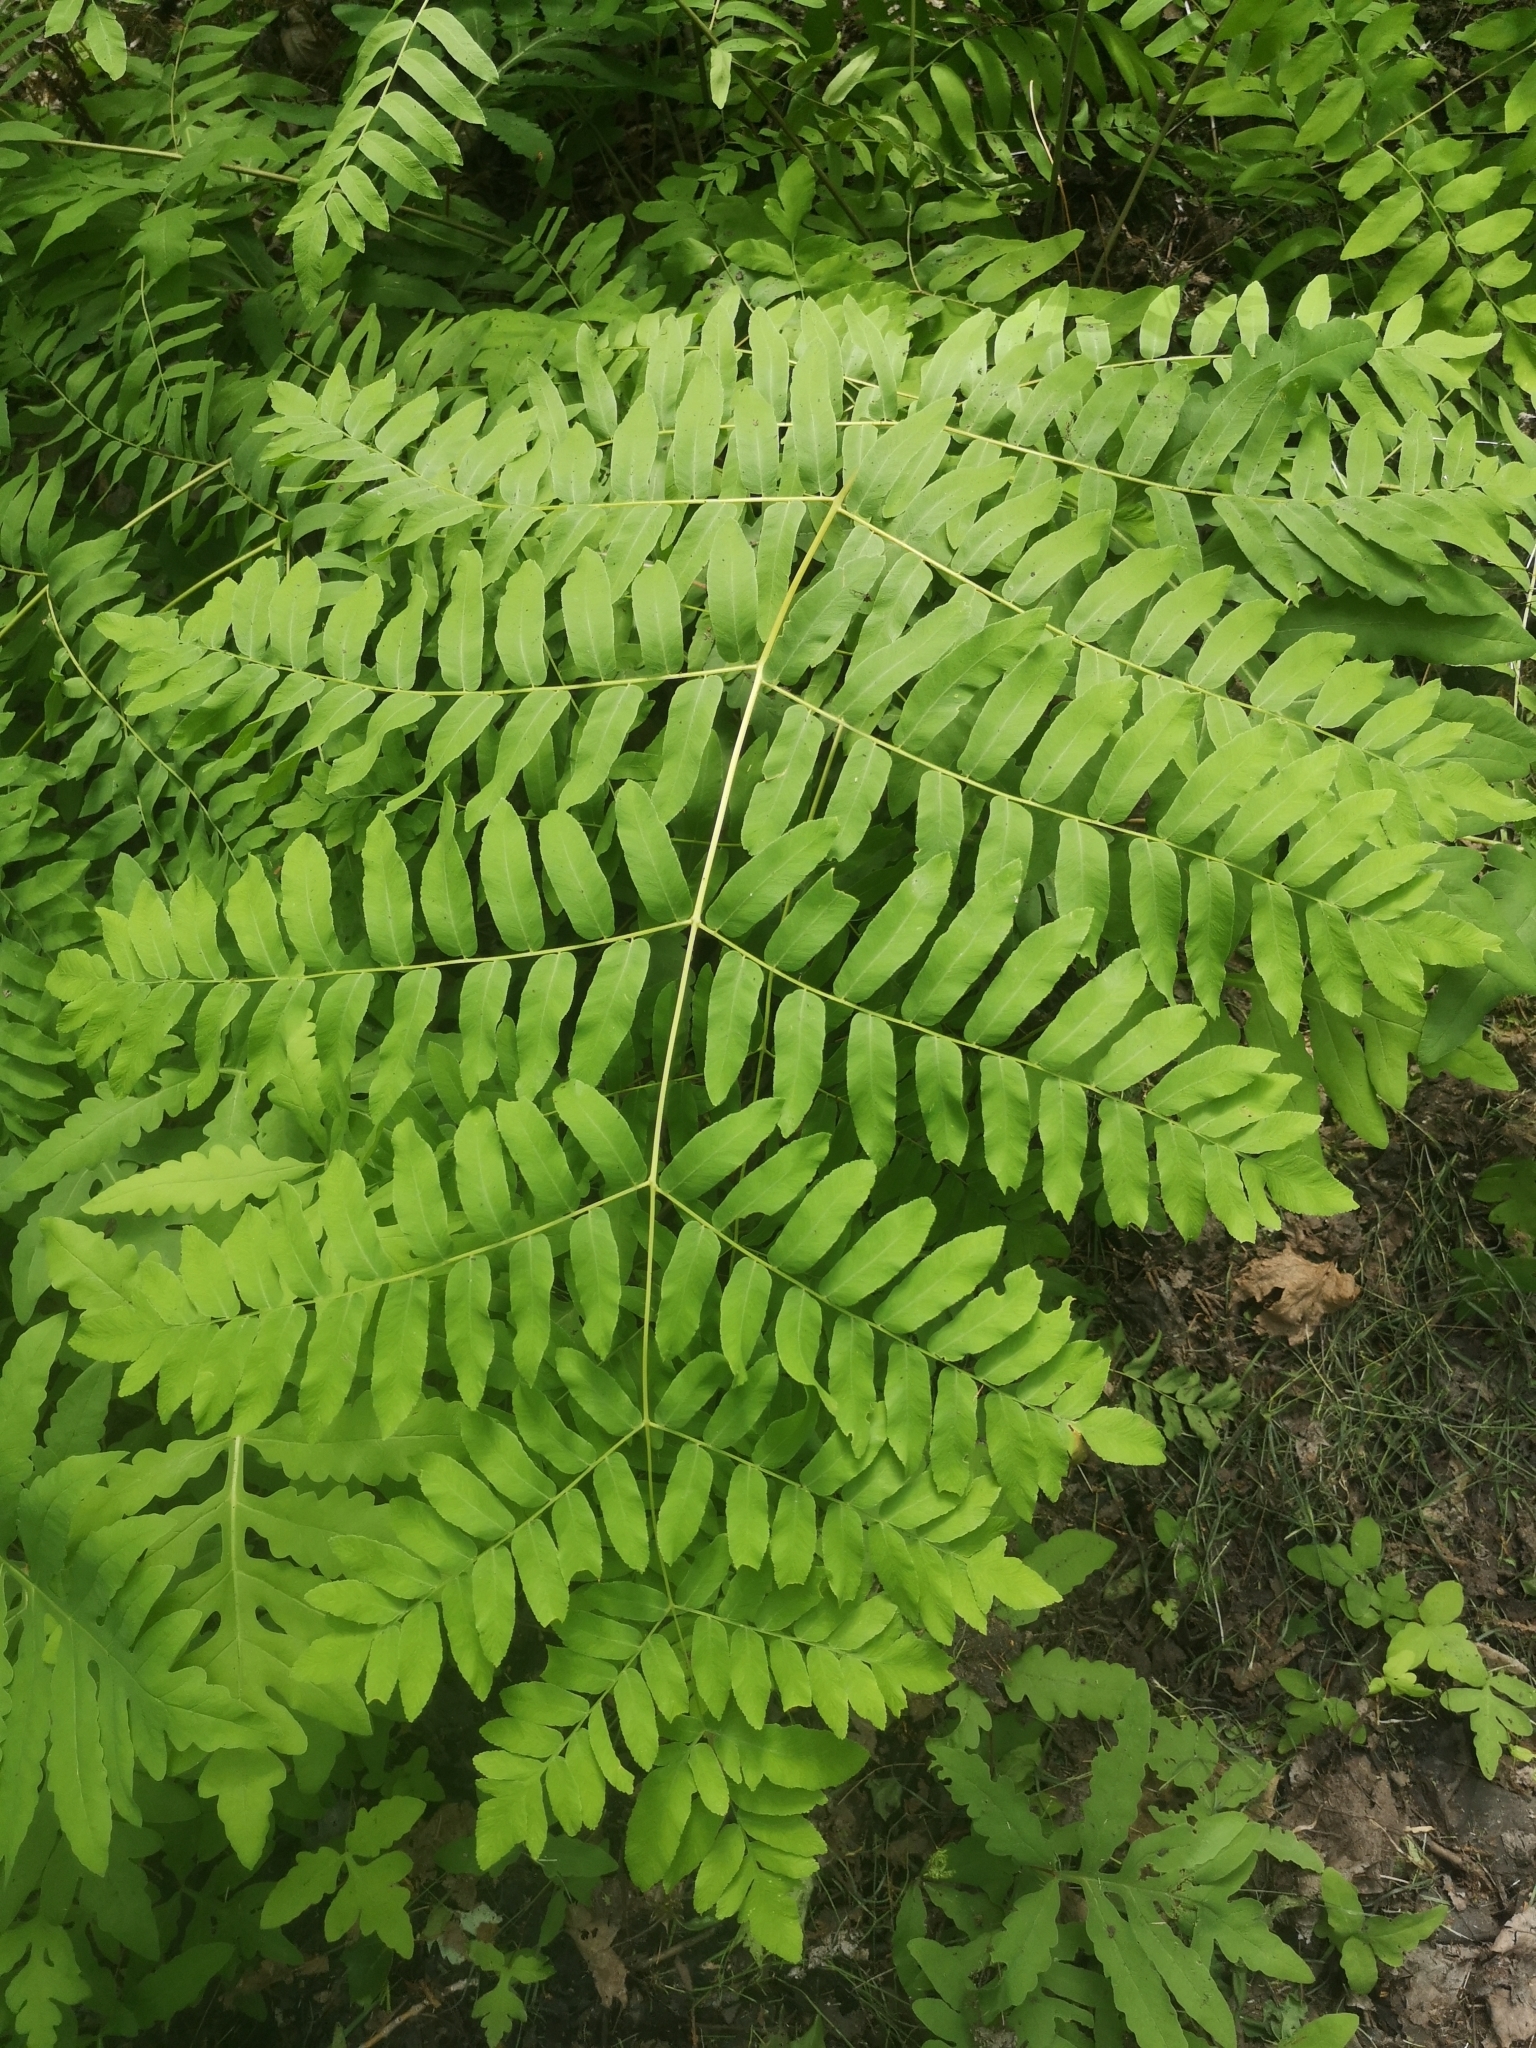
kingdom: Plantae
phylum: Tracheophyta
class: Polypodiopsida
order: Osmundales
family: Osmundaceae
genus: Osmunda
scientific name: Osmunda spectabilis
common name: American royal fern
